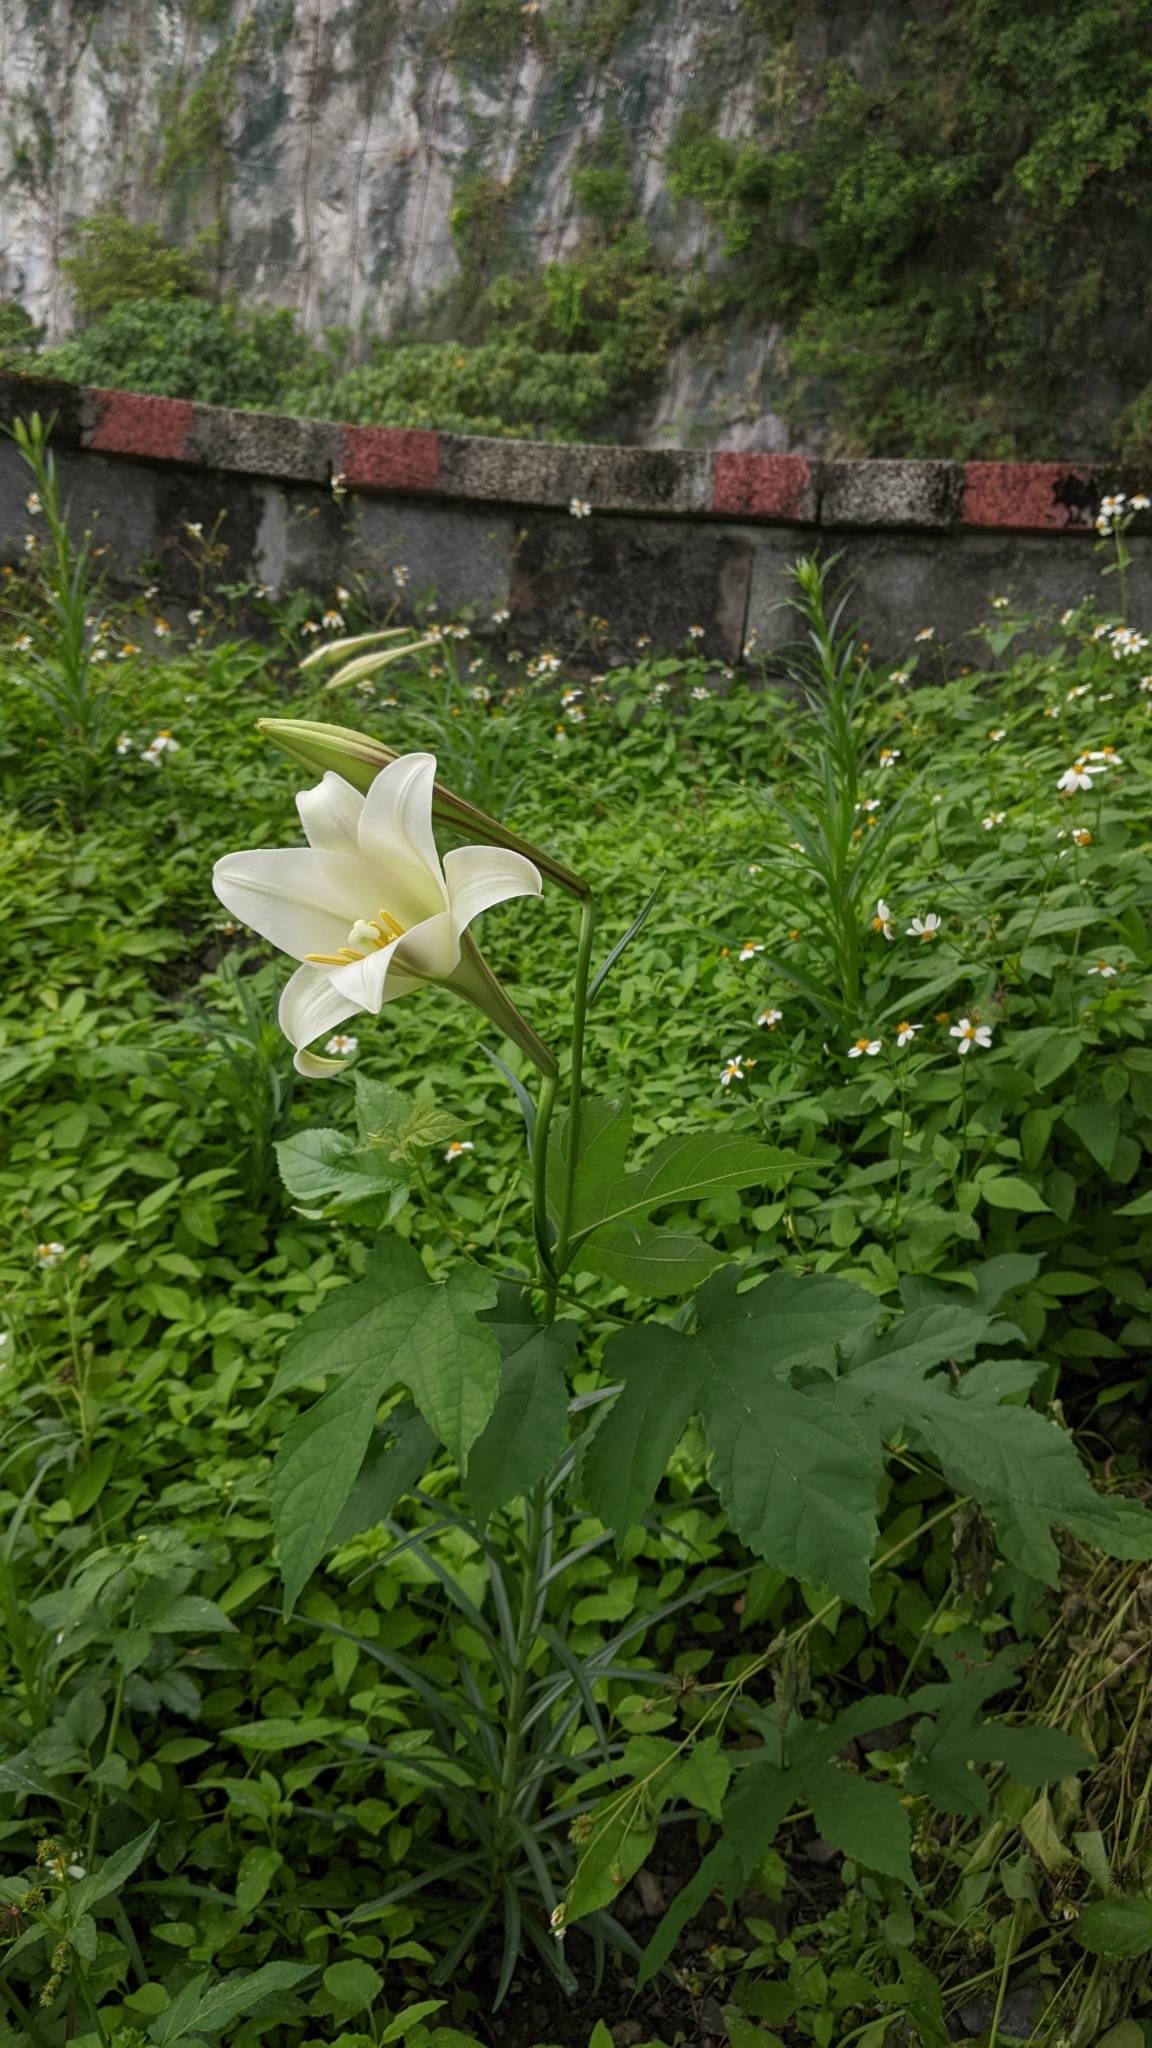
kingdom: Plantae
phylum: Tracheophyta
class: Liliopsida
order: Liliales
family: Liliaceae
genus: Lilium
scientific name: Lilium formosanum
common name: Formosa lily
